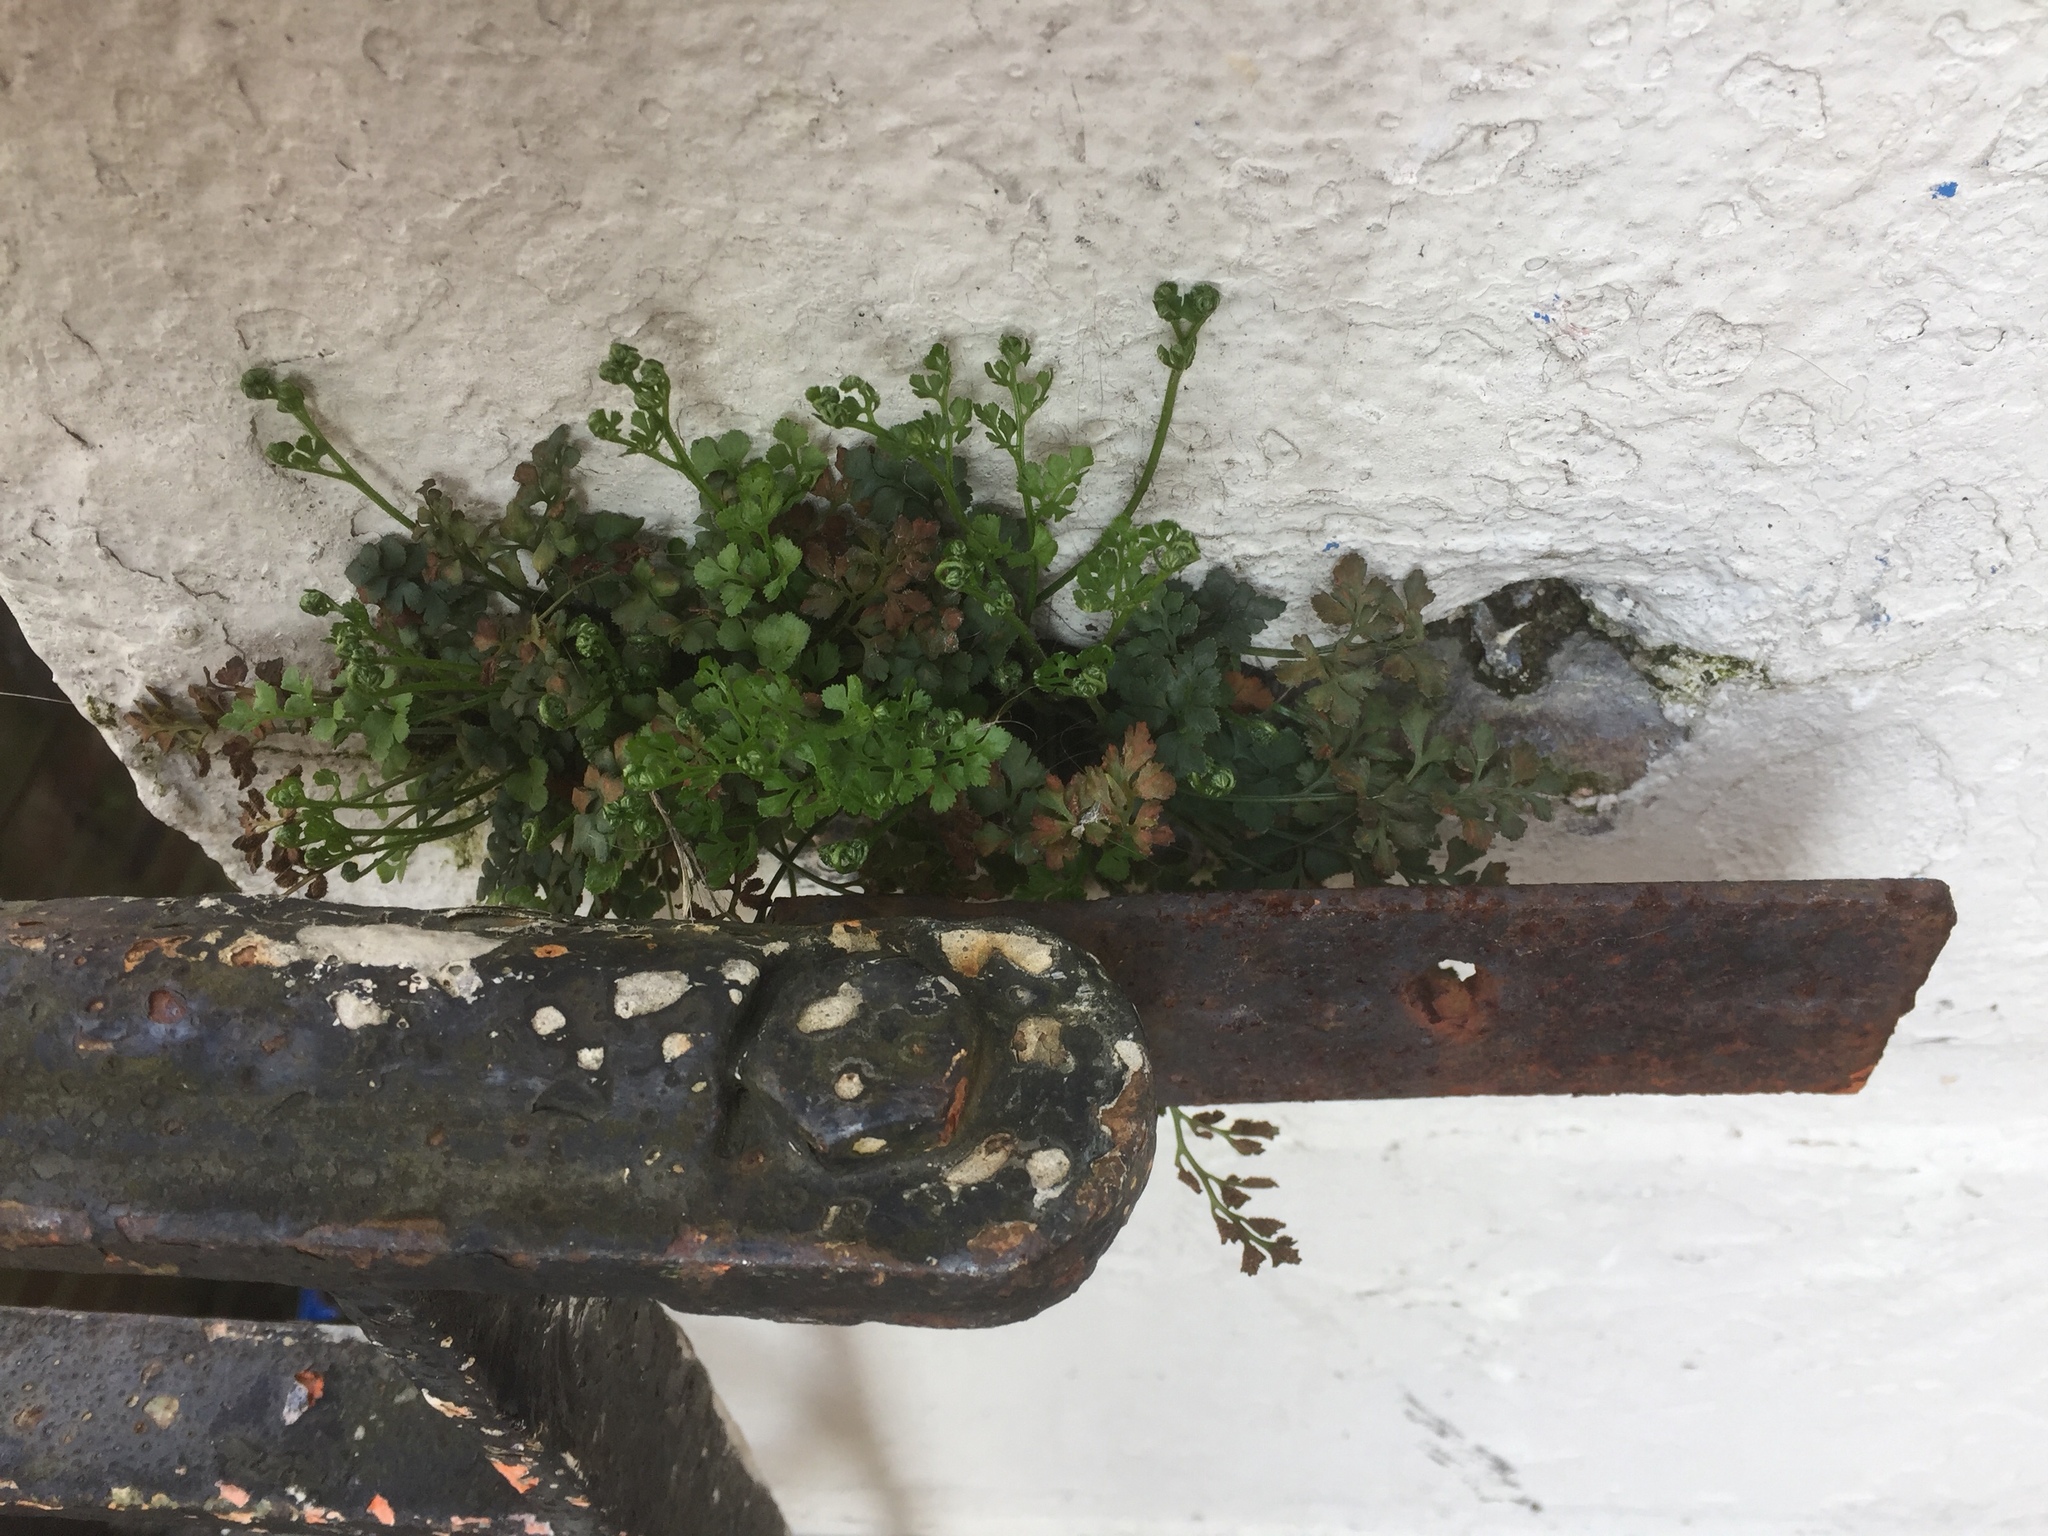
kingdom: Plantae
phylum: Tracheophyta
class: Polypodiopsida
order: Polypodiales
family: Aspleniaceae
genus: Asplenium
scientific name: Asplenium ruta-muraria
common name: Wall-rue
